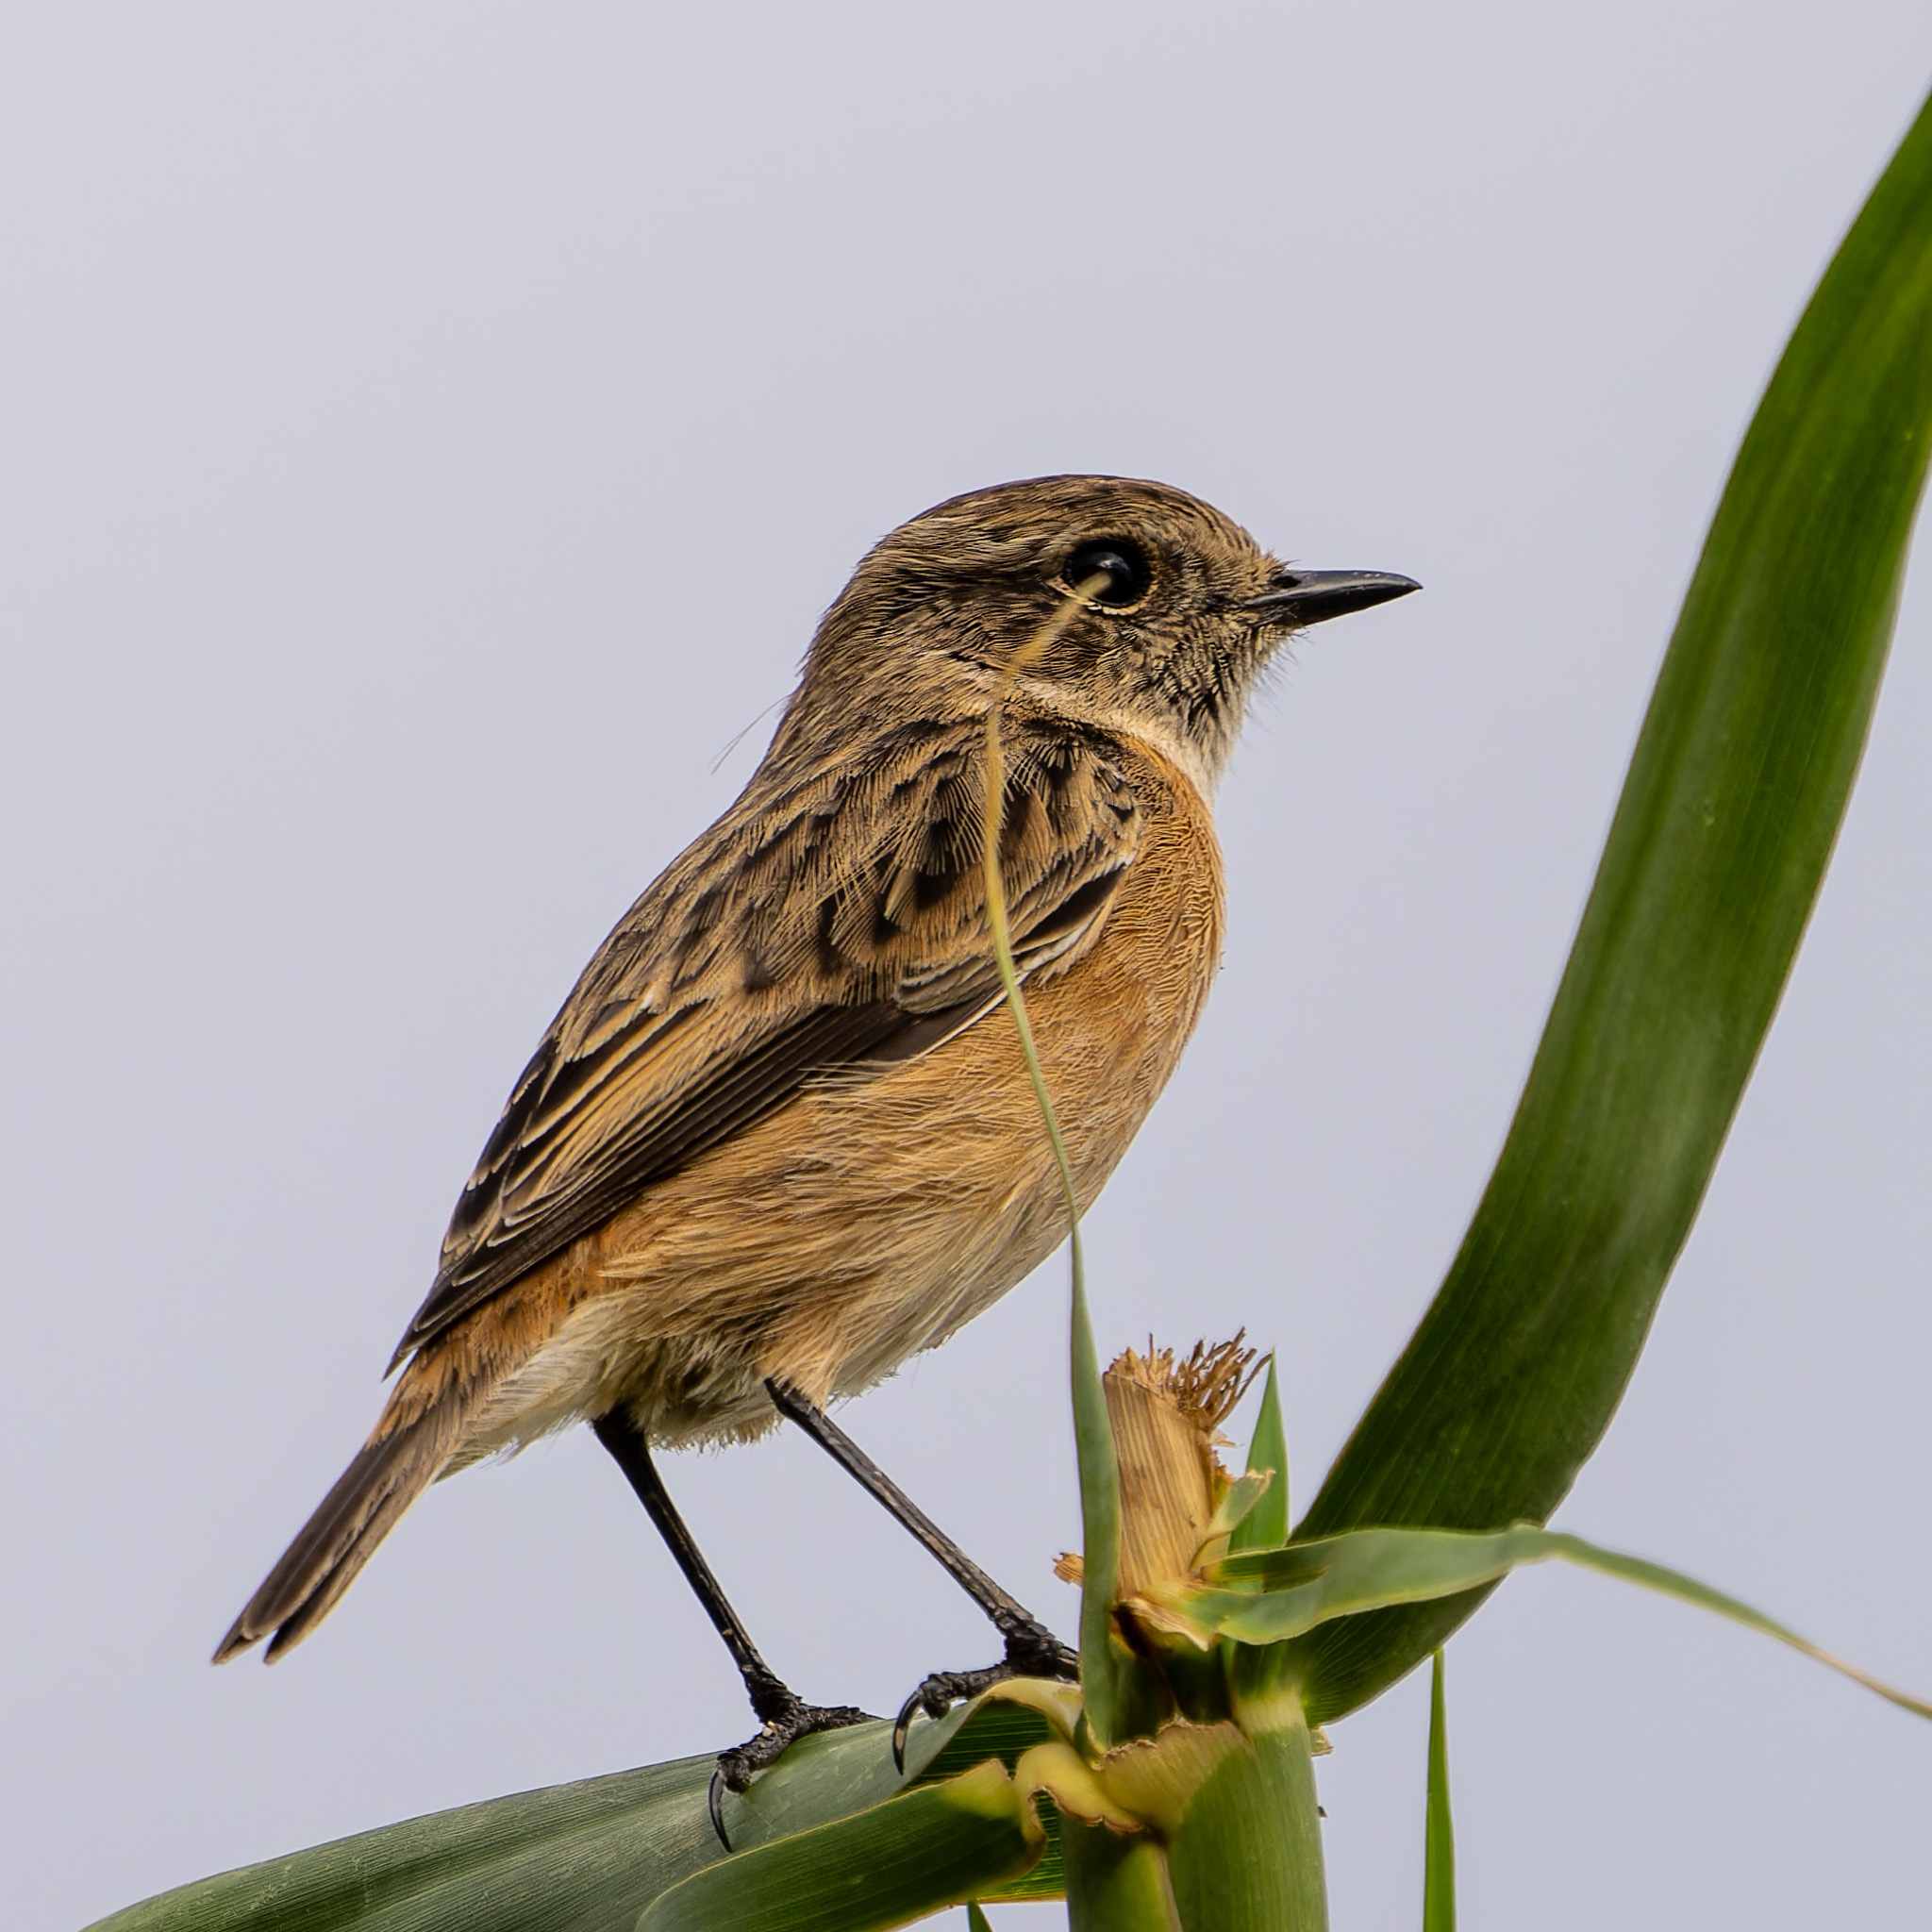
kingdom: Animalia
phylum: Chordata
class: Aves
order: Passeriformes
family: Muscicapidae
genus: Saxicola
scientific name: Saxicola rubicola
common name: European stonechat
